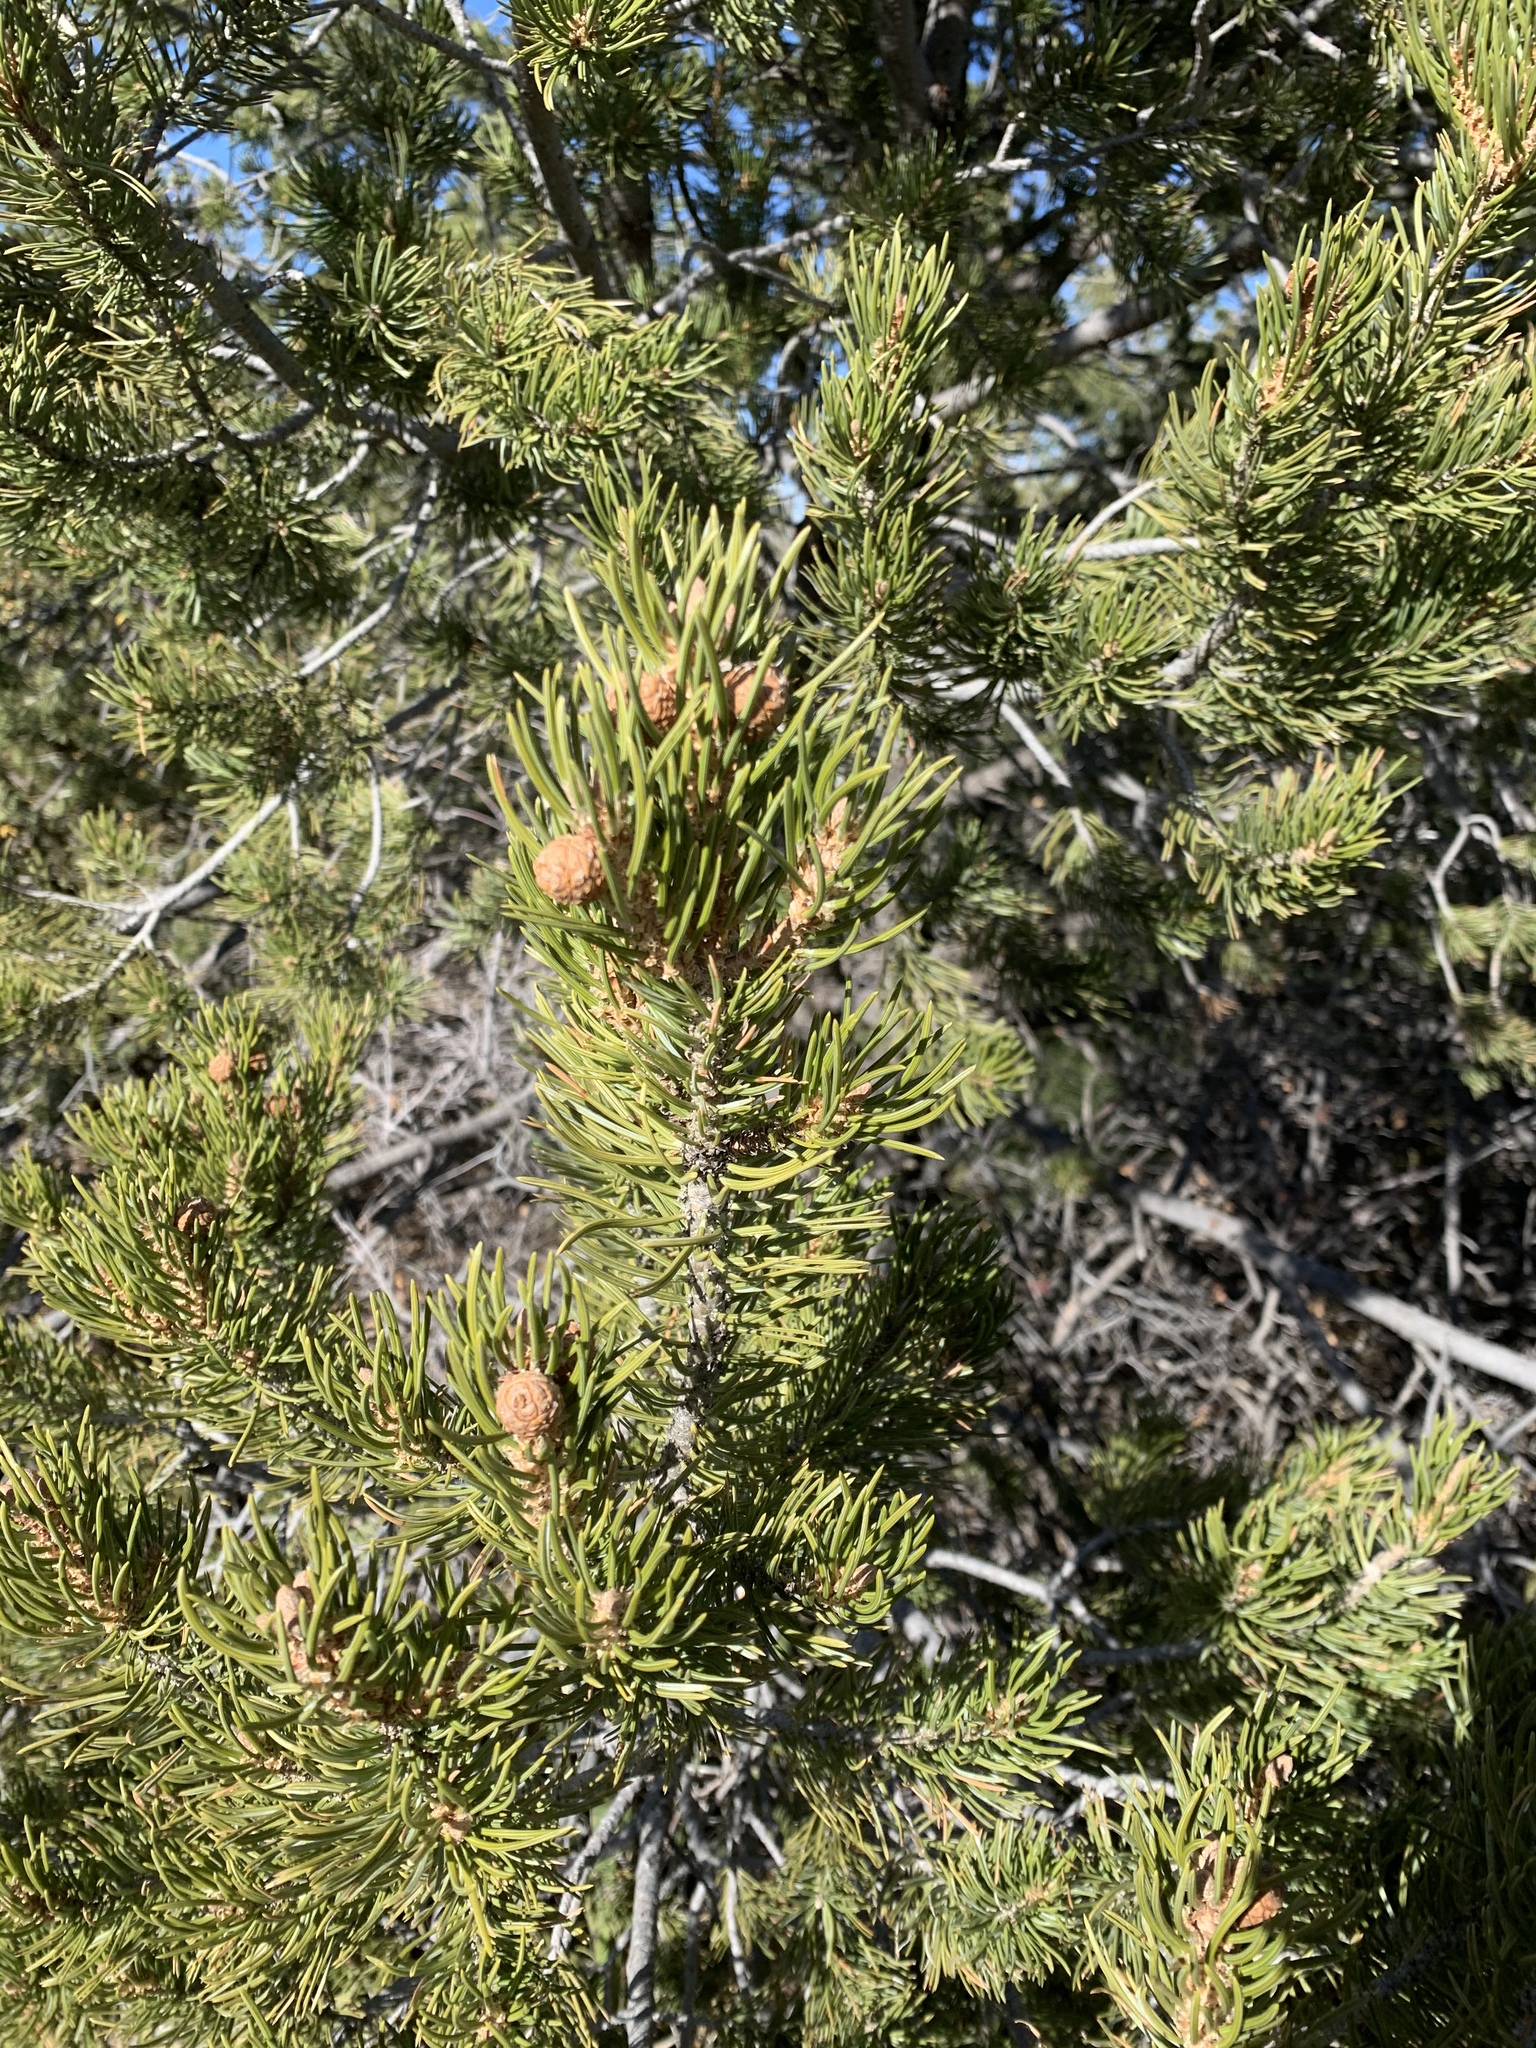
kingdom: Plantae
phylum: Tracheophyta
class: Pinopsida
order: Pinales
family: Pinaceae
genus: Pinus
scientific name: Pinus edulis
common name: Colorado pinyon
